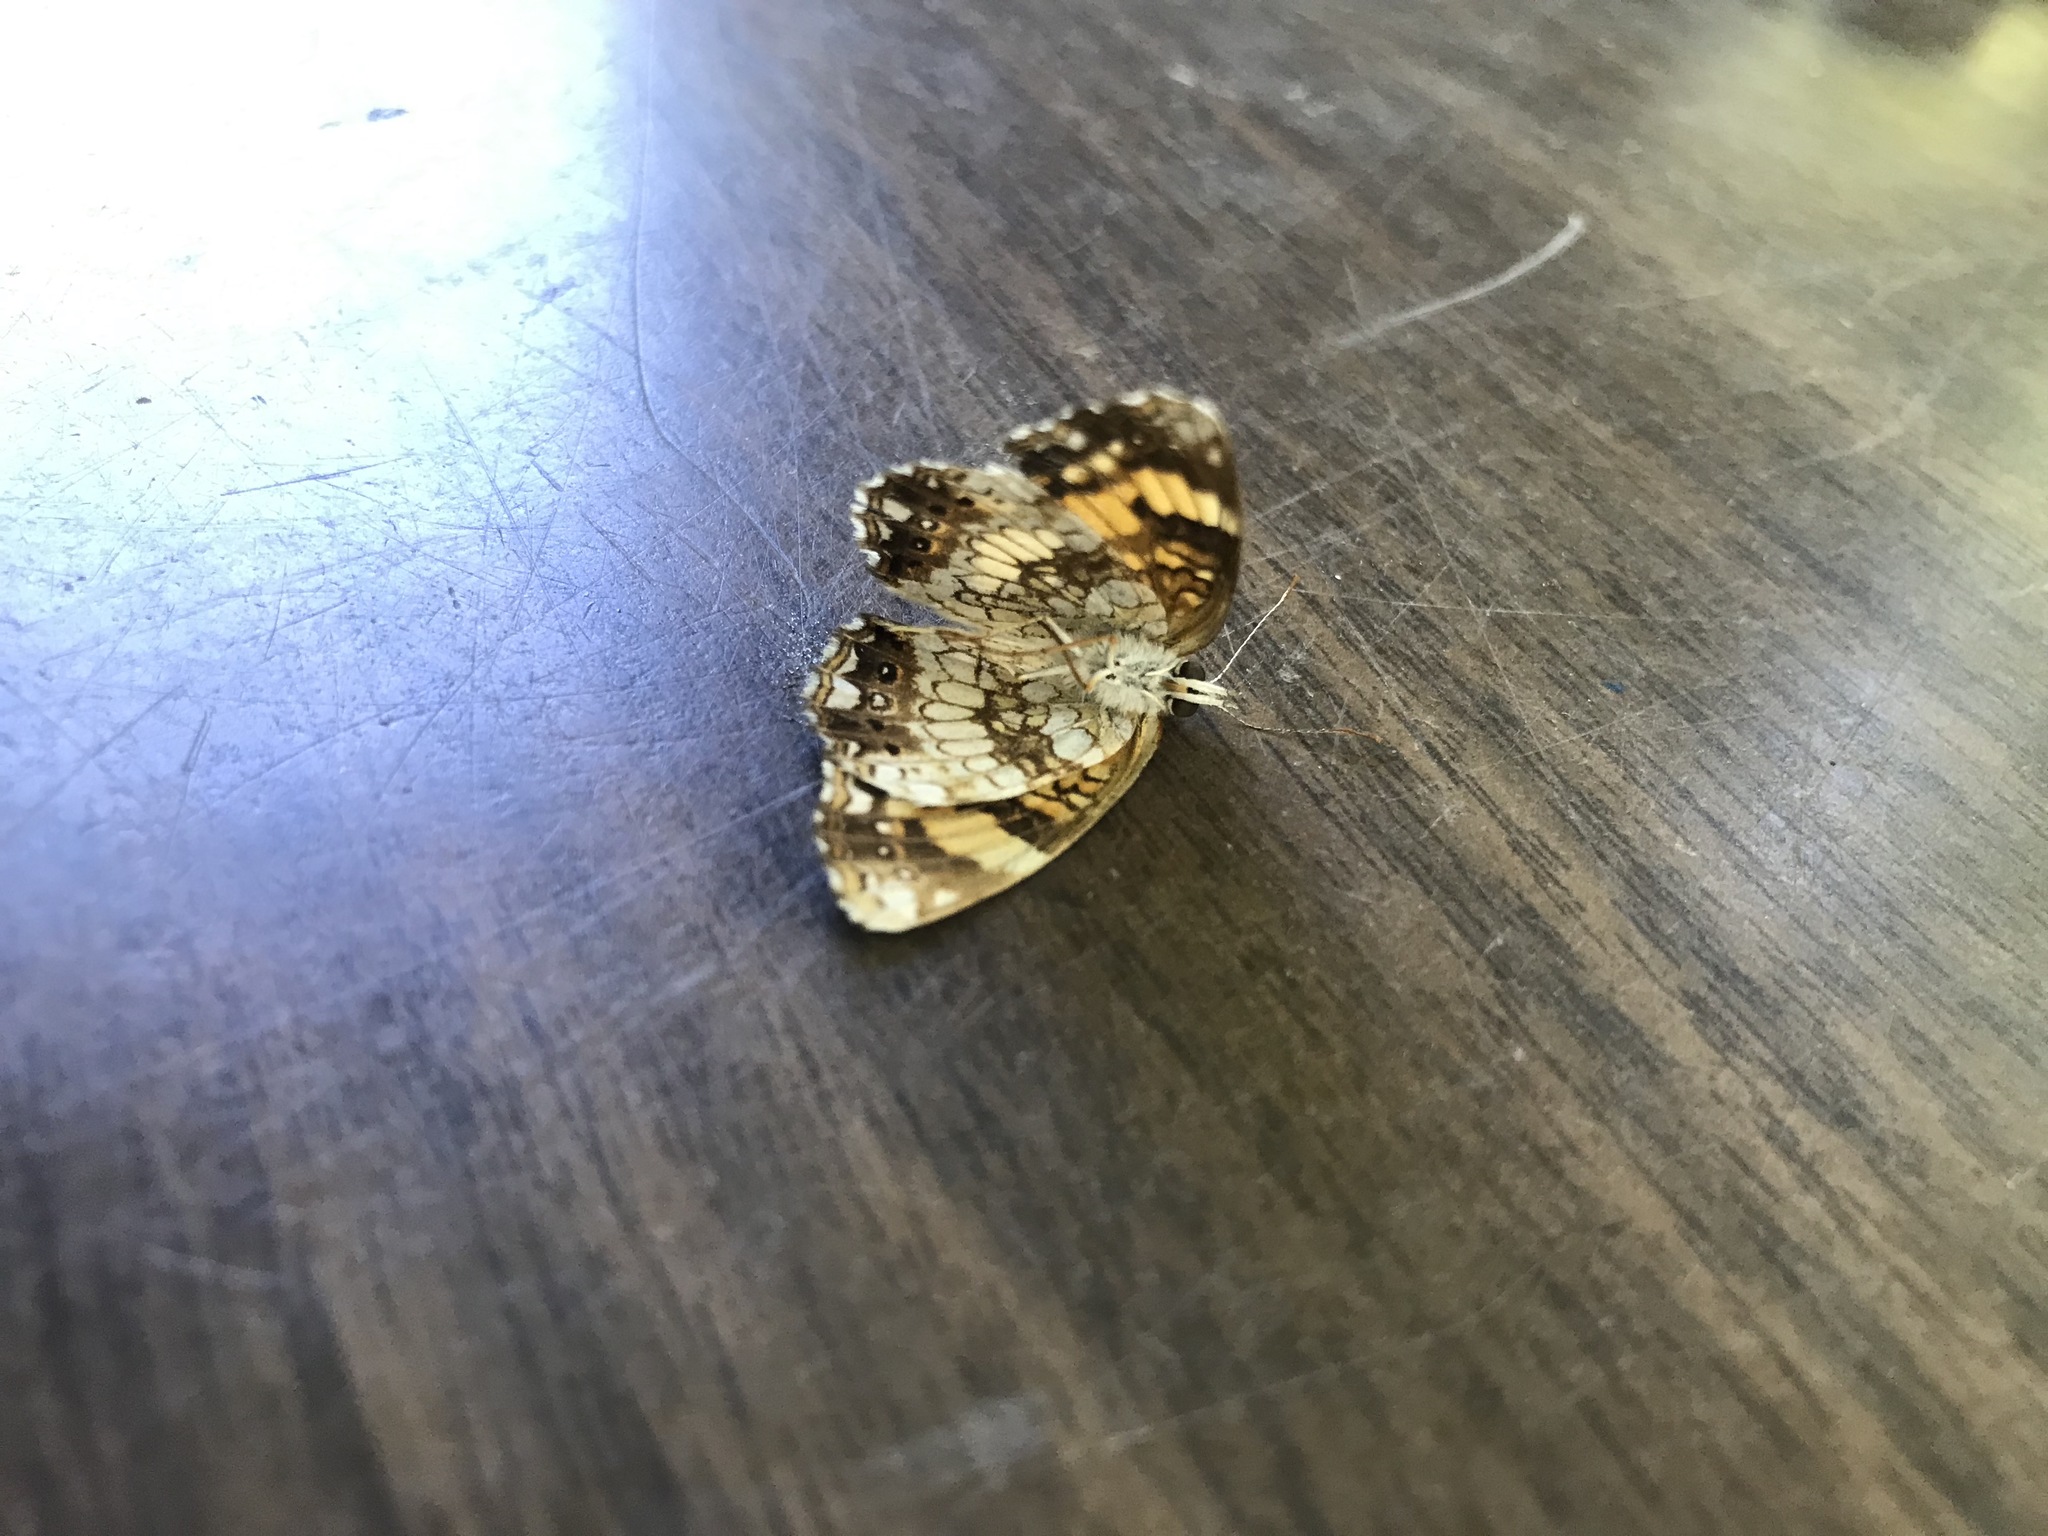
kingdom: Animalia
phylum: Arthropoda
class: Insecta
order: Lepidoptera
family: Nymphalidae
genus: Chlosyne
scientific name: Chlosyne nycteis
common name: Silvery checkerspot
